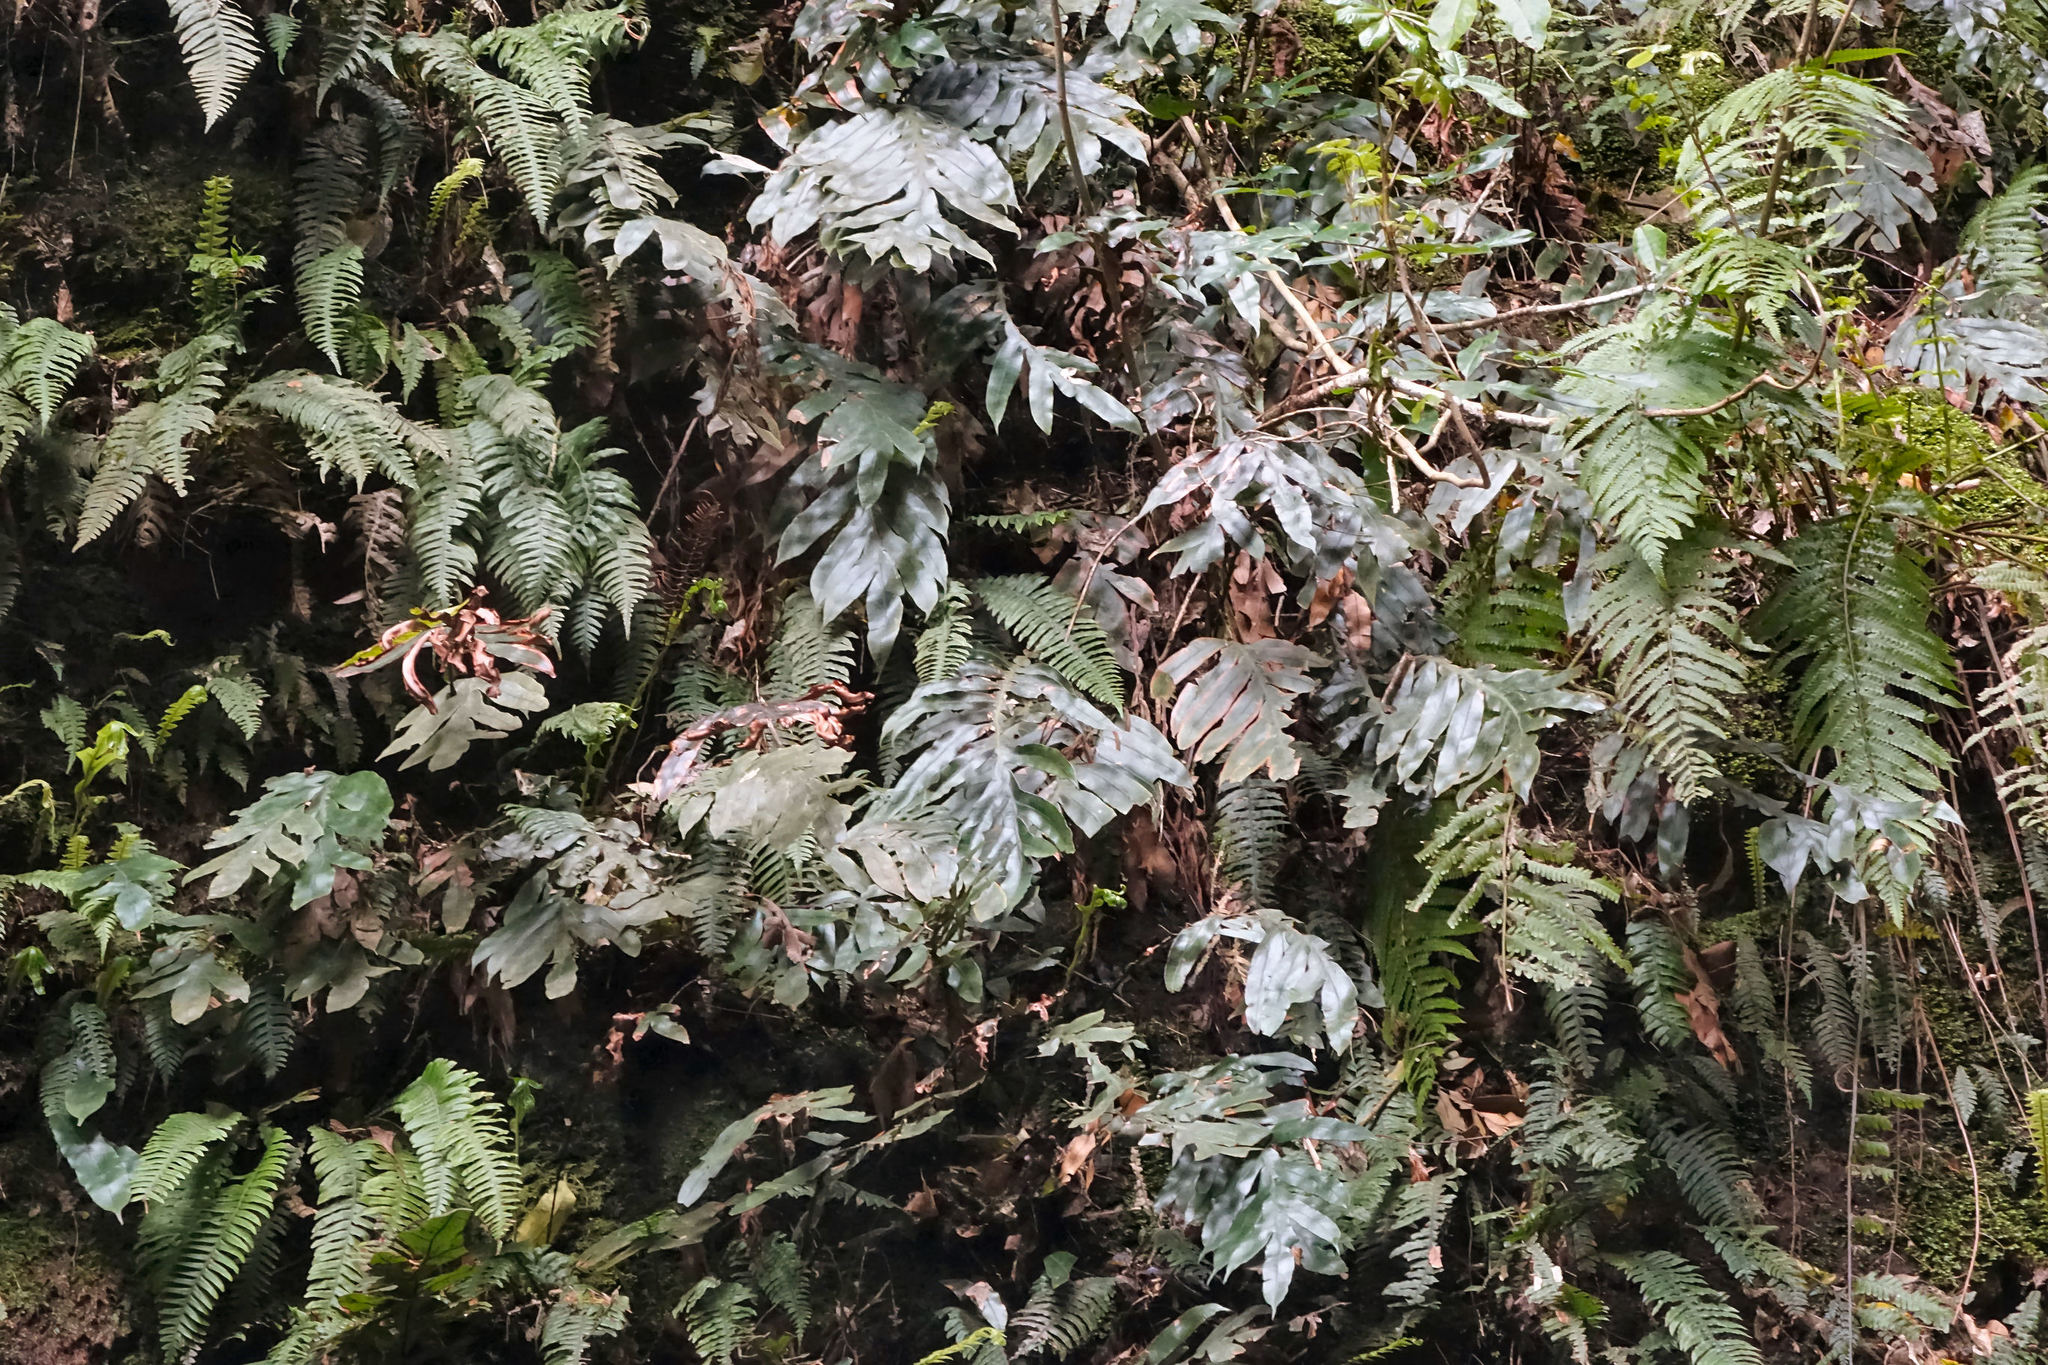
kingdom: Plantae
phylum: Tracheophyta
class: Polypodiopsida
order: Polypodiales
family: Blechnaceae
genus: Austroblechnum
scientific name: Austroblechnum colensoi
